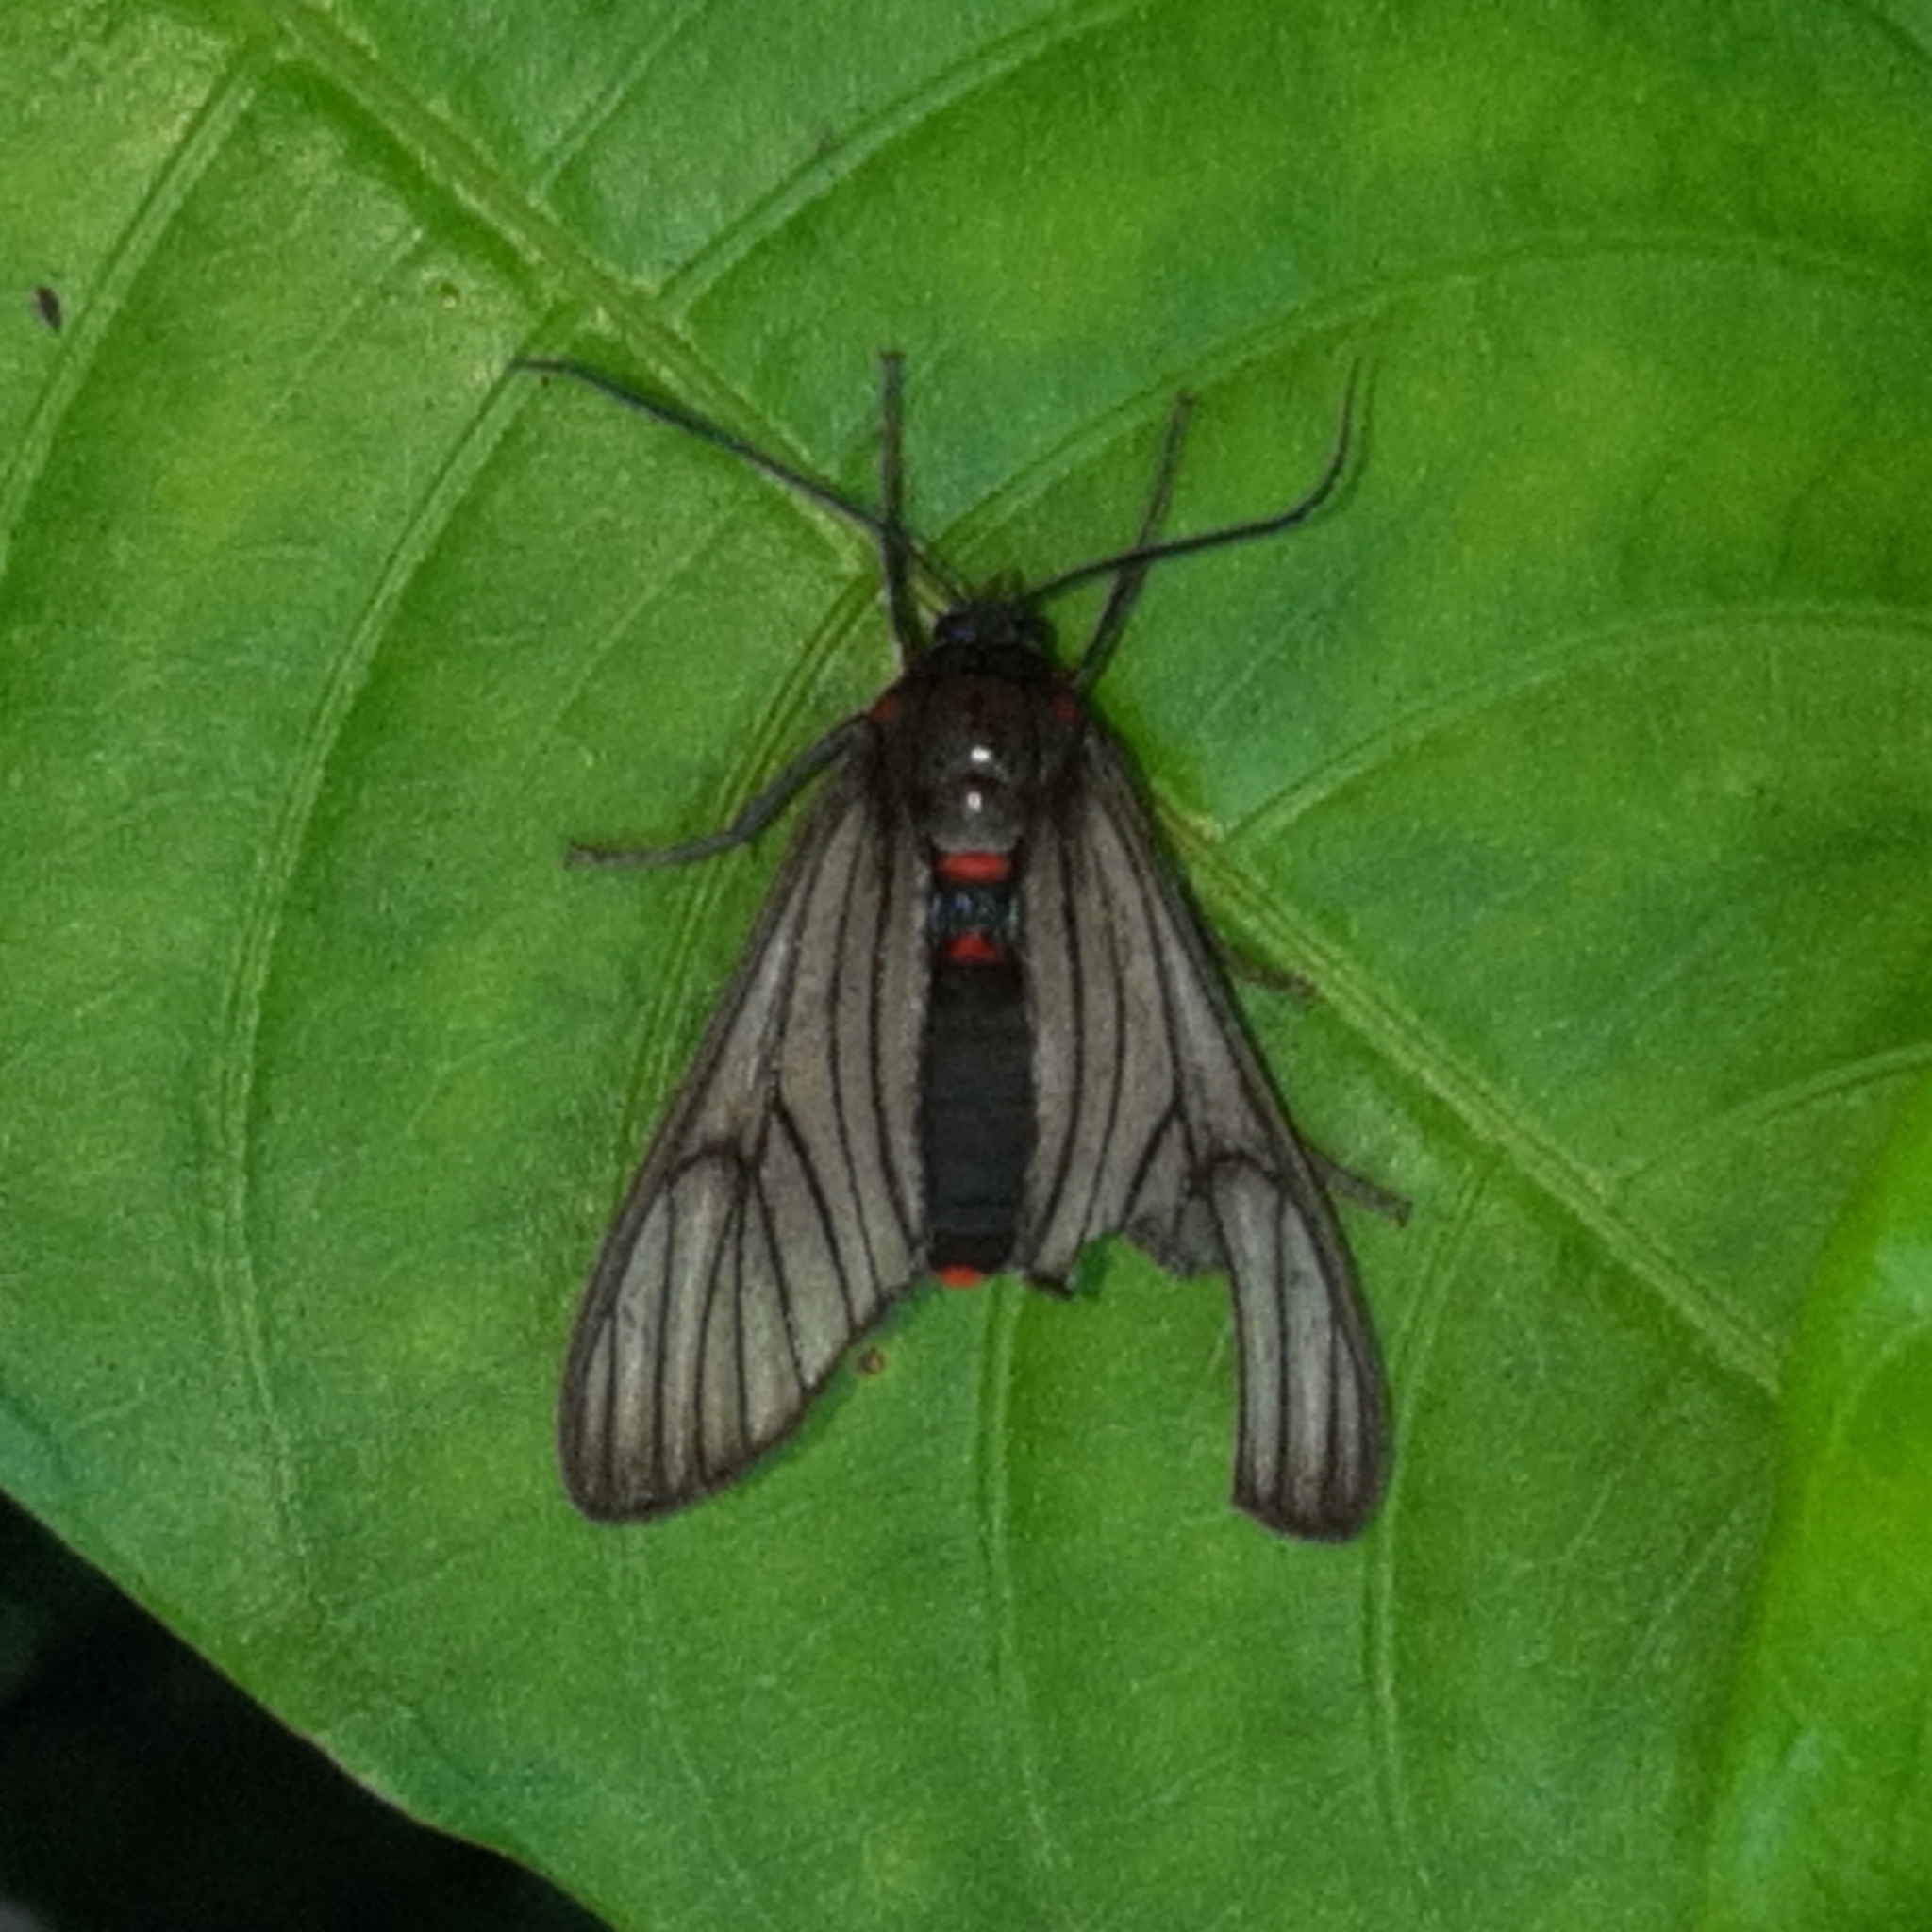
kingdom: Animalia
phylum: Arthropoda
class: Insecta
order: Lepidoptera
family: Erebidae
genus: Saurita
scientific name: Saurita nigripalpia
